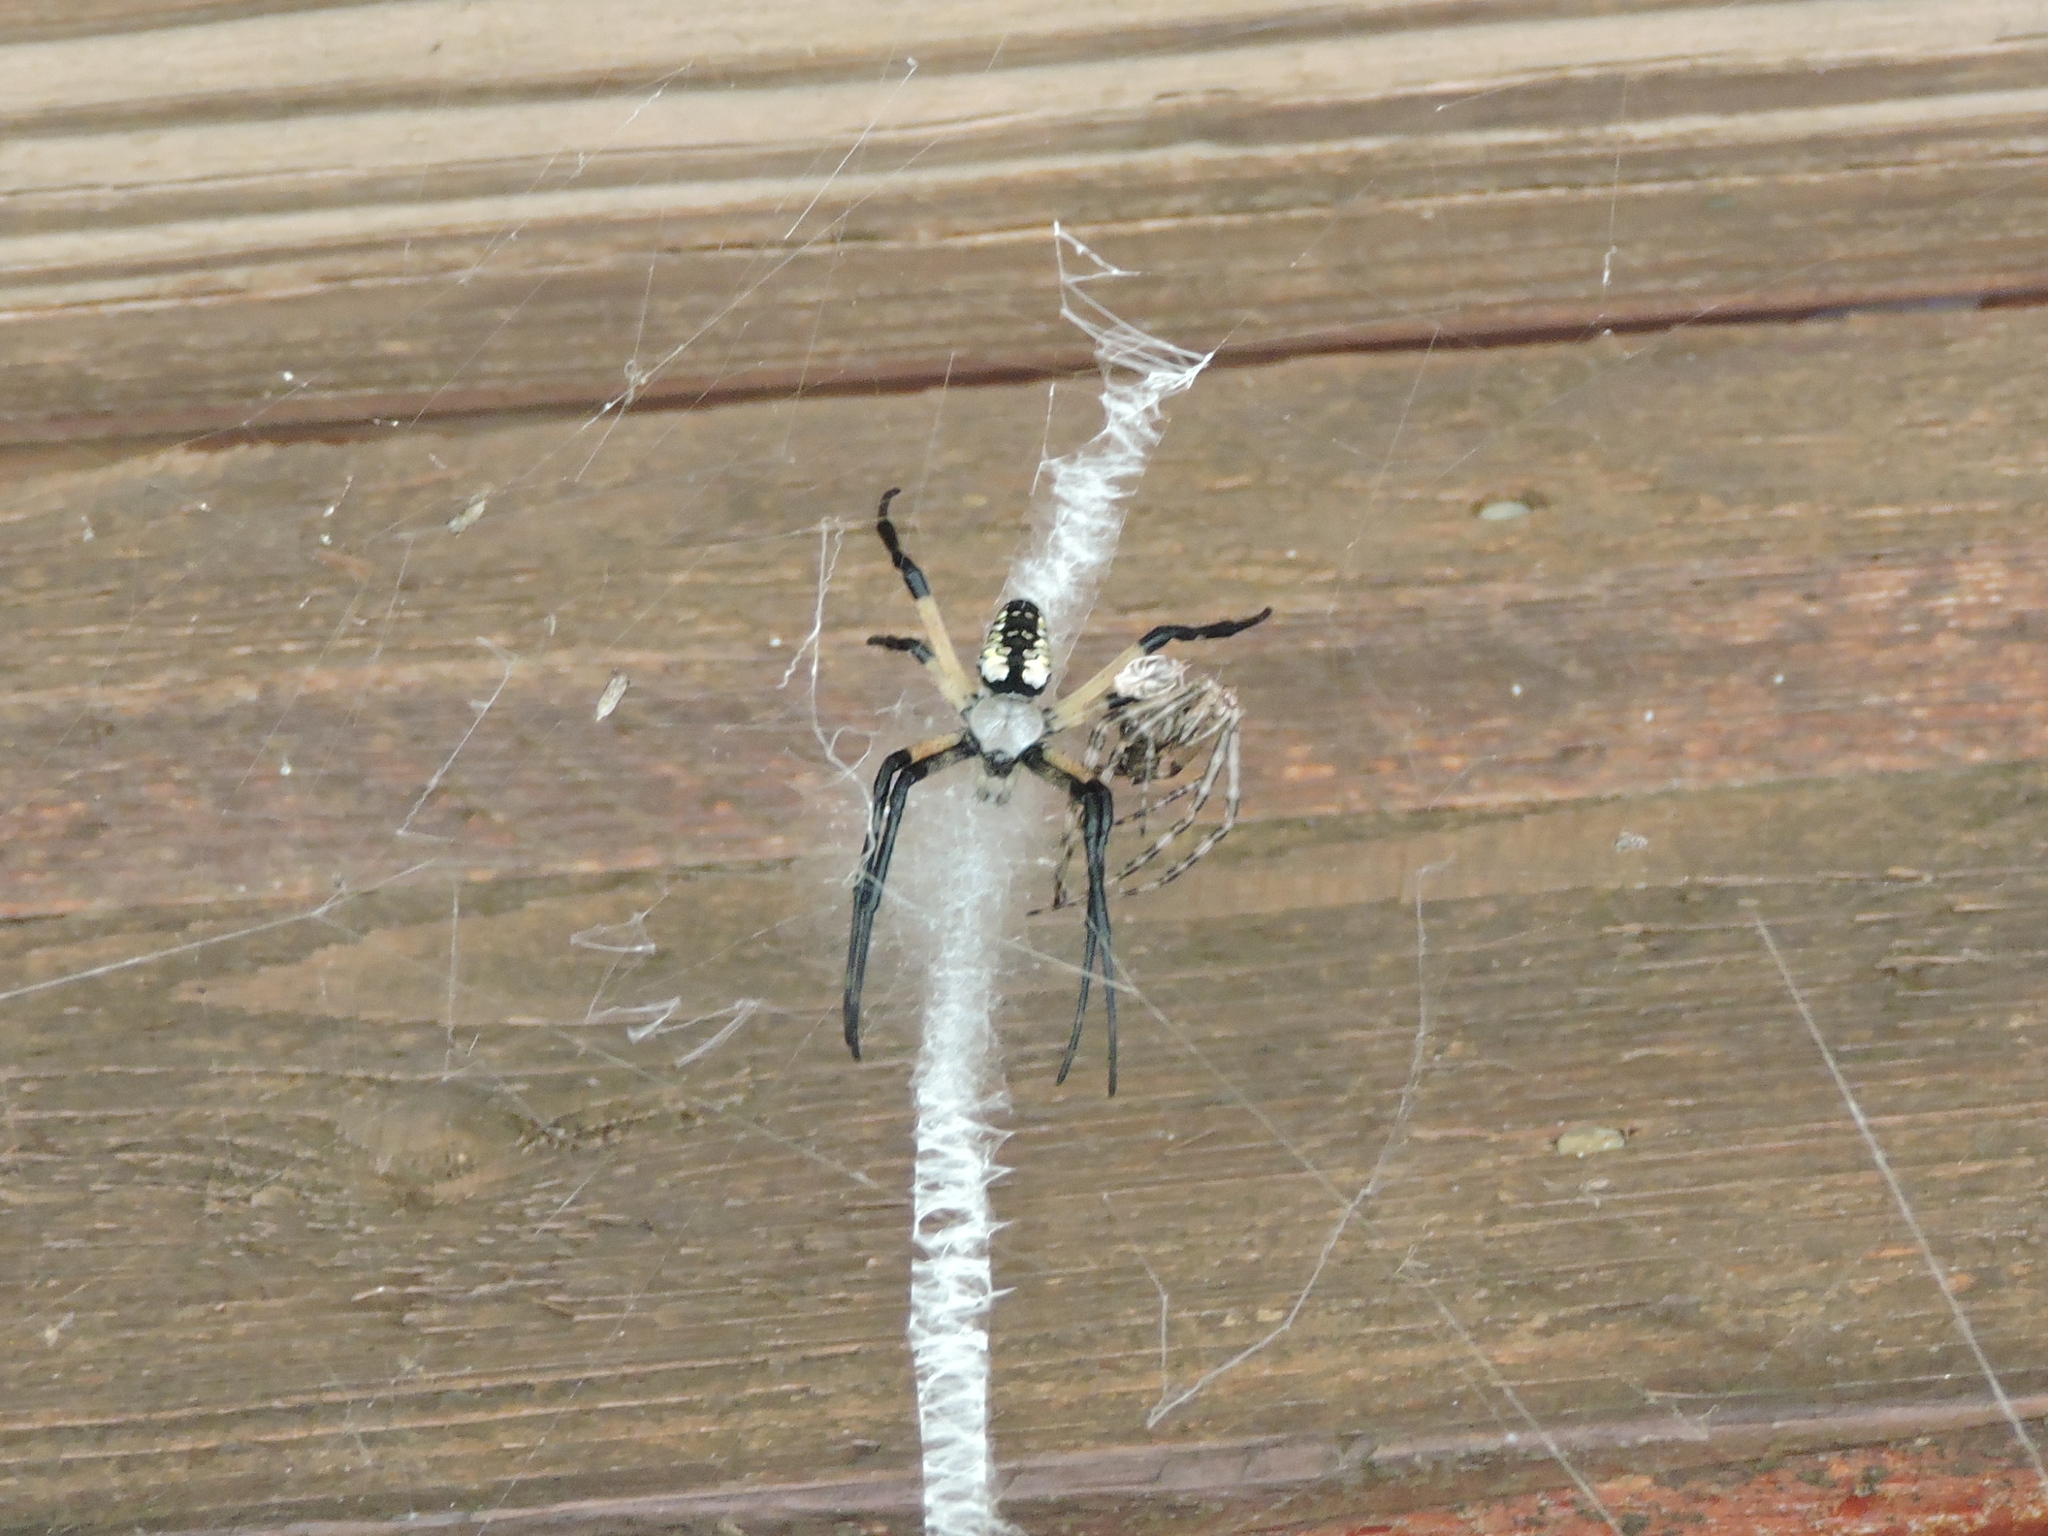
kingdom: Animalia
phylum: Arthropoda
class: Arachnida
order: Araneae
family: Araneidae
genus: Argiope
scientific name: Argiope aurantia
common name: Orb weavers
